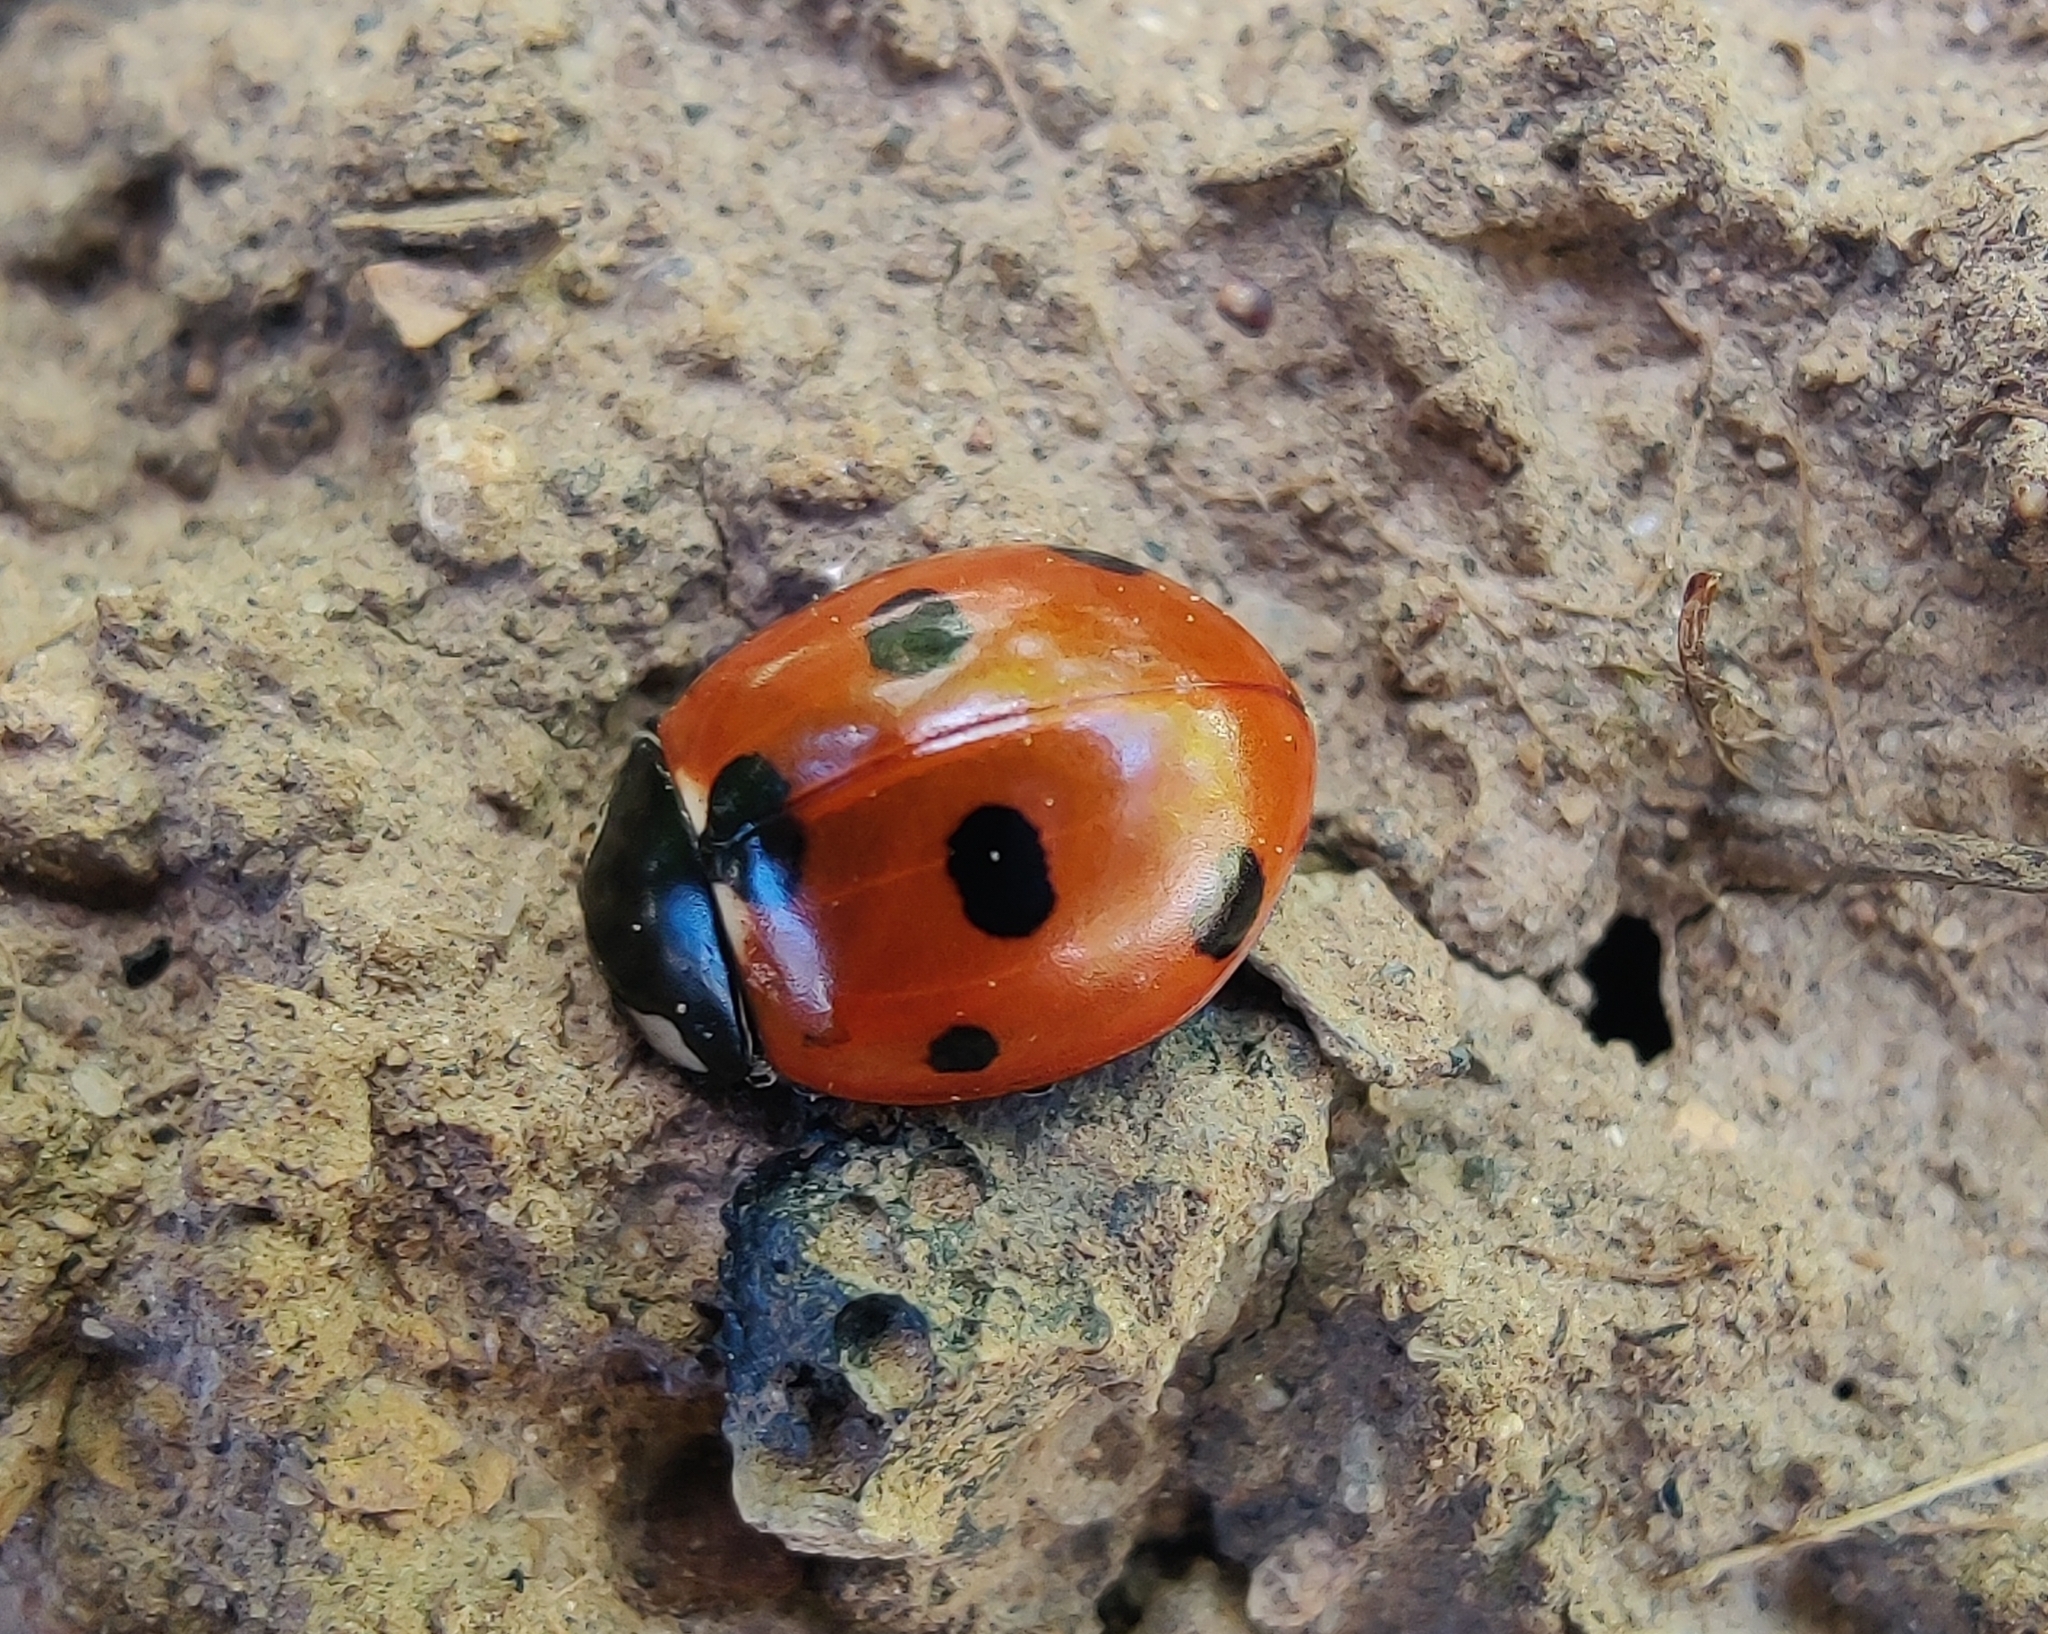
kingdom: Animalia
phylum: Arthropoda
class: Insecta
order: Coleoptera
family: Coccinellidae
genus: Coccinella
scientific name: Coccinella septempunctata
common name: Sevenspotted lady beetle
